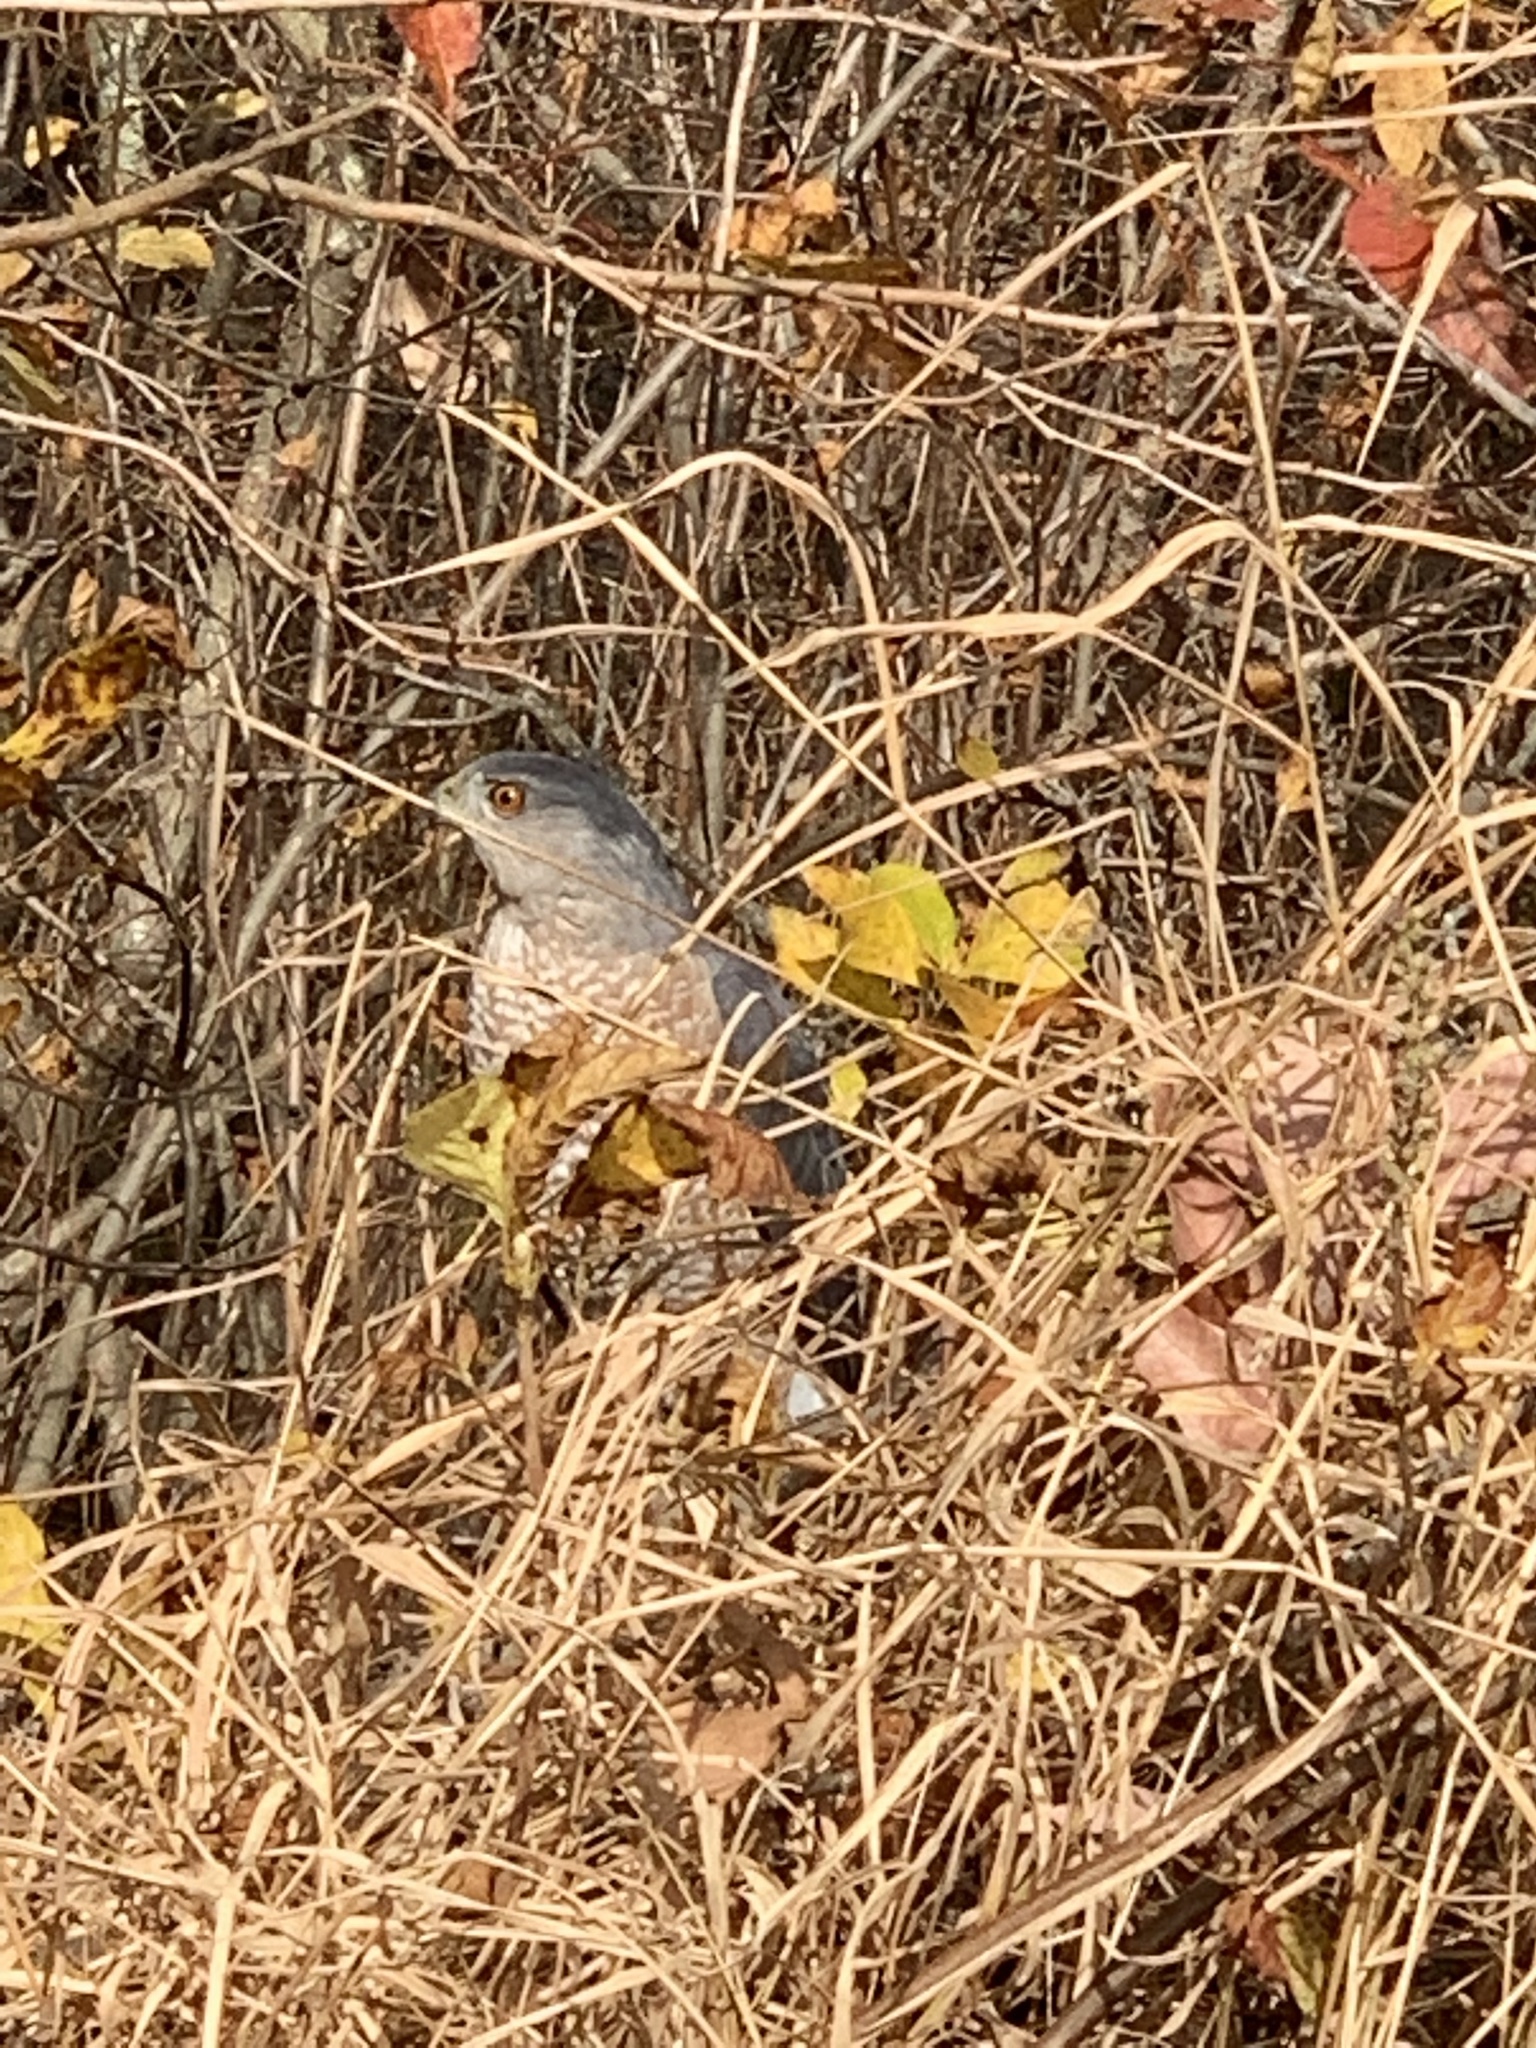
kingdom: Animalia
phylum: Chordata
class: Aves
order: Accipitriformes
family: Accipitridae
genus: Accipiter
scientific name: Accipiter cooperii
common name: Cooper's hawk
